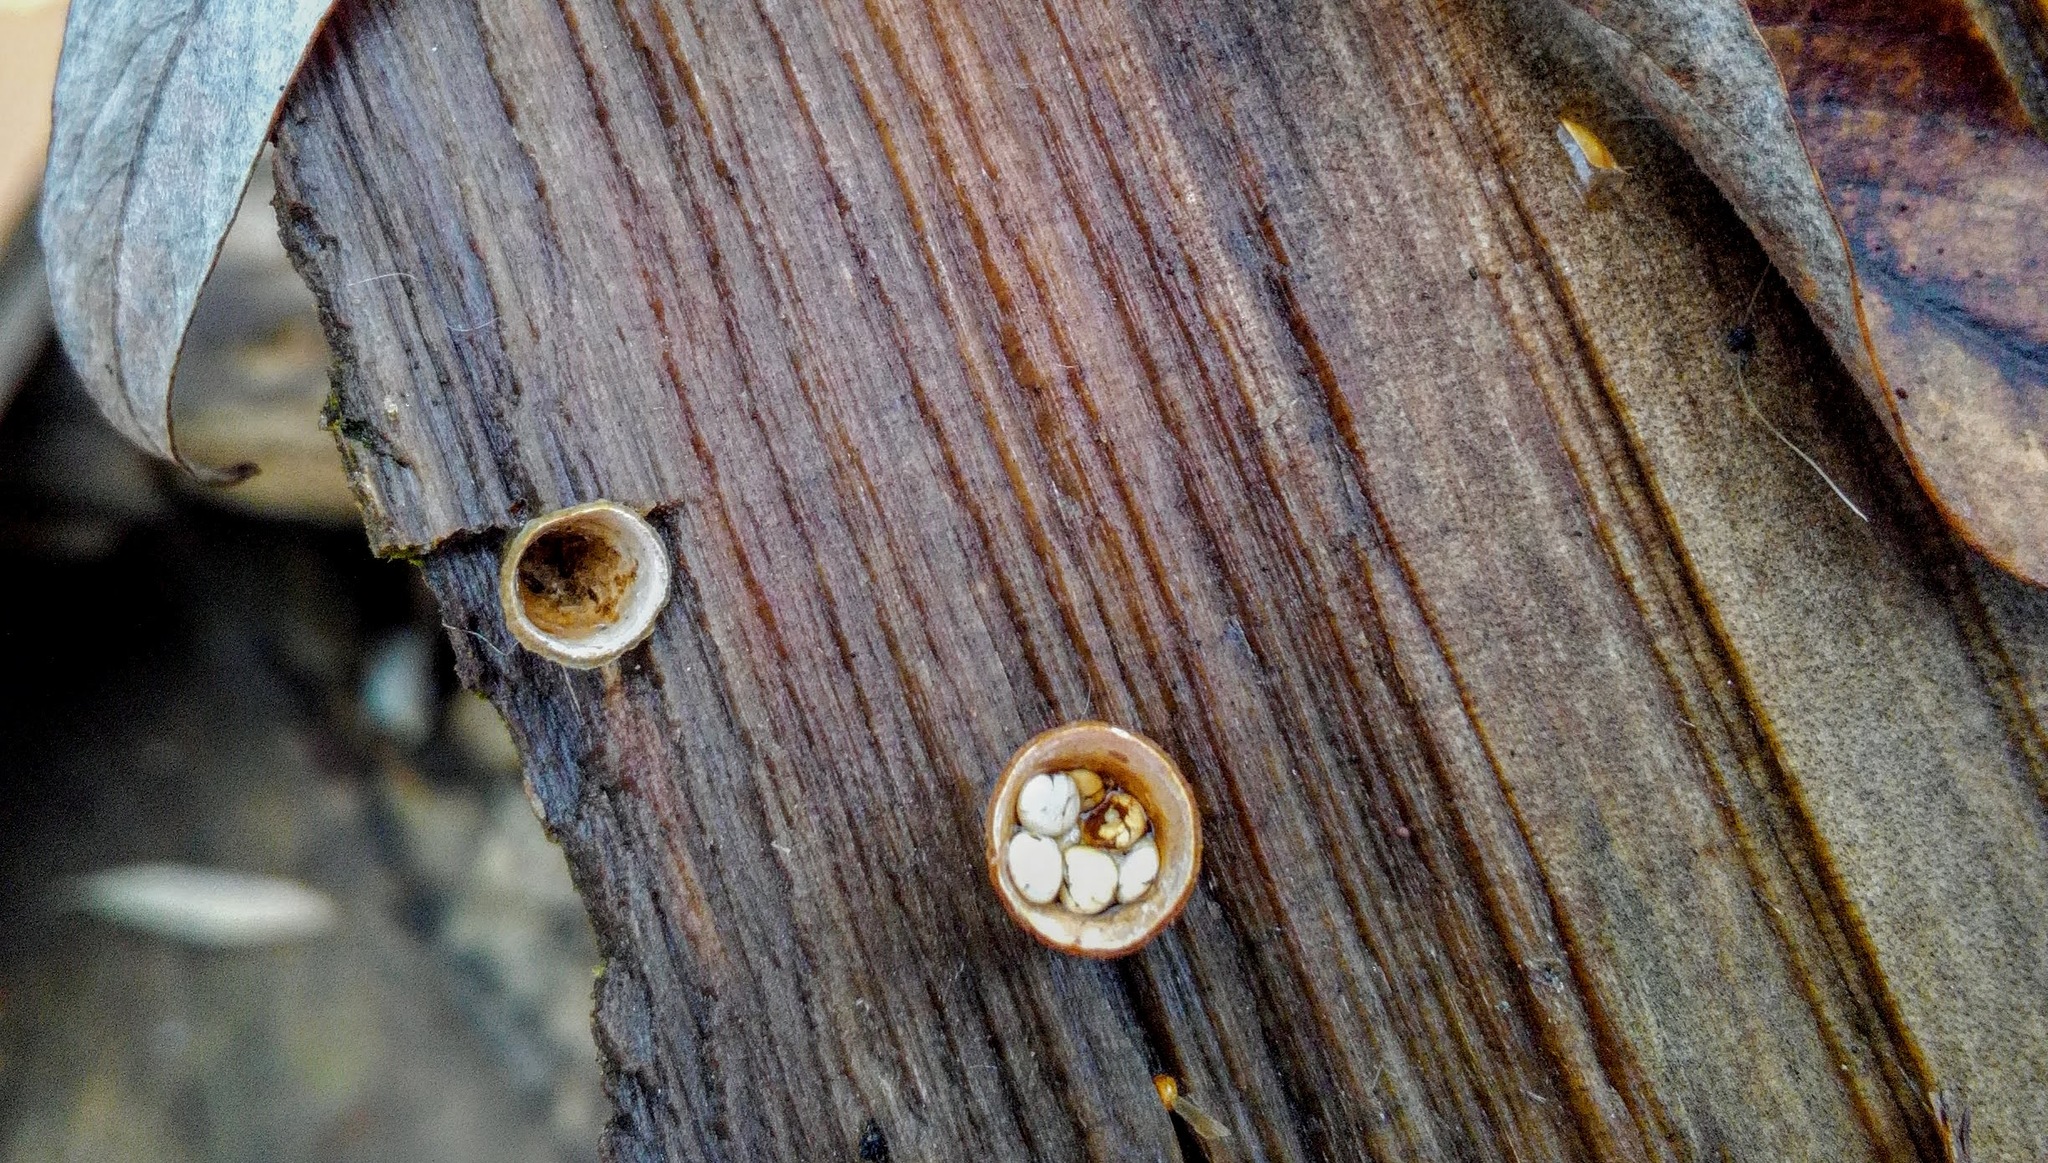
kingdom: Fungi
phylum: Basidiomycota
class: Agaricomycetes
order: Agaricales
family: Nidulariaceae
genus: Crucibulum
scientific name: Crucibulum laeve
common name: Common bird's nest
